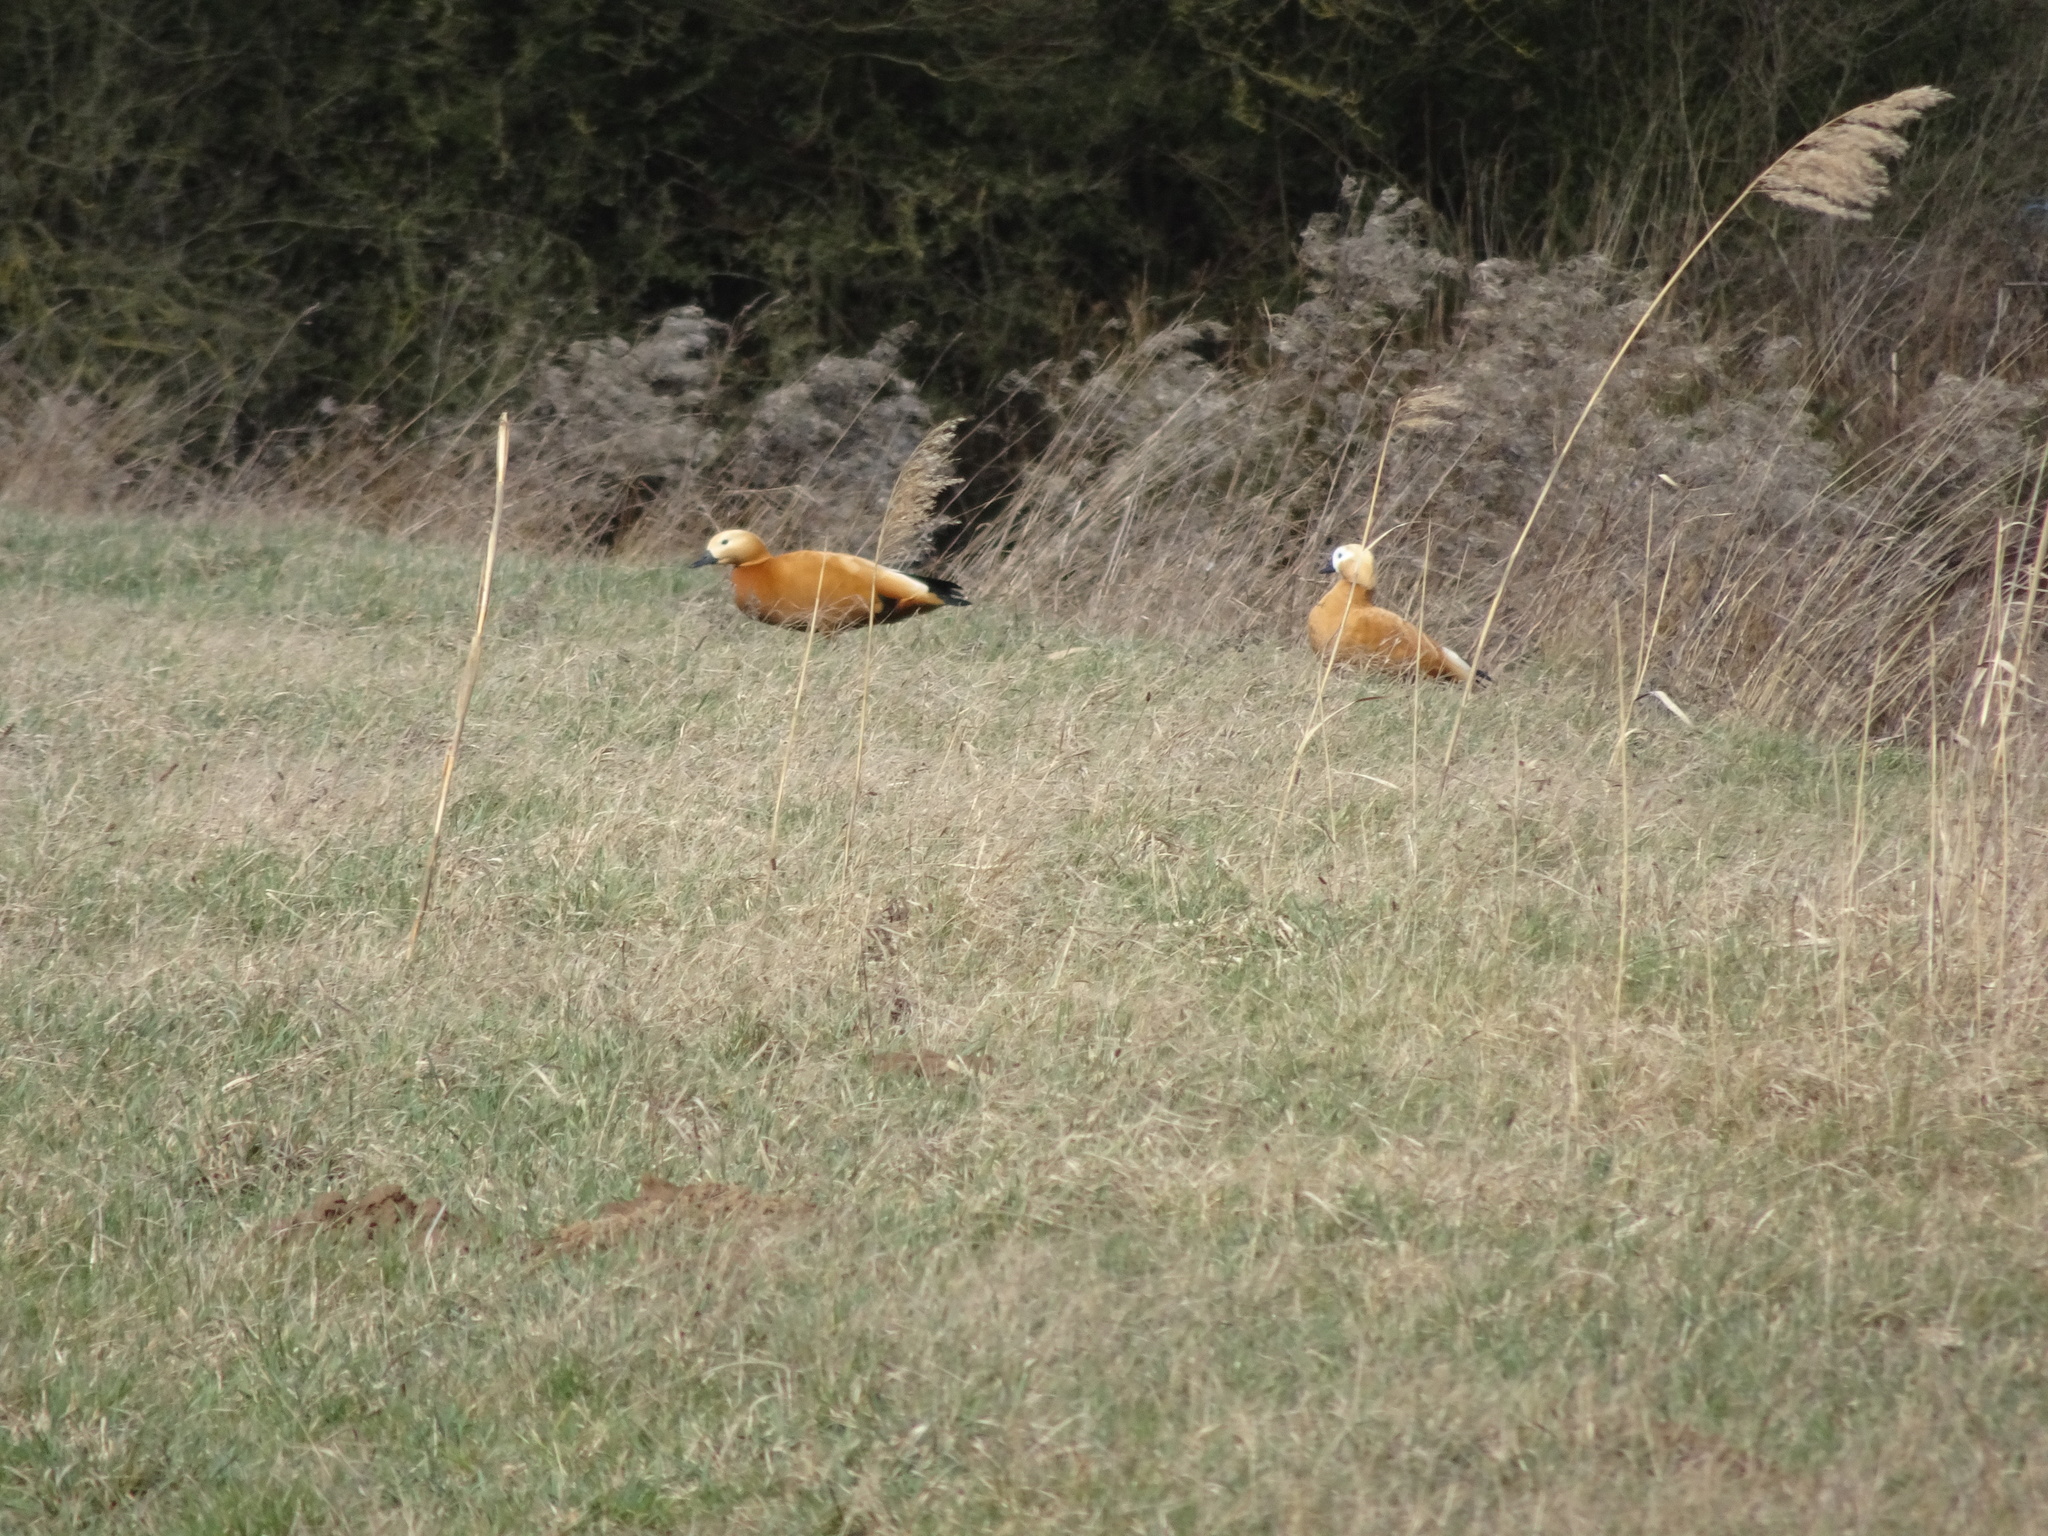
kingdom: Animalia
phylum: Chordata
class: Aves
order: Anseriformes
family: Anatidae
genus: Tadorna
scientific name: Tadorna ferruginea
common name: Ruddy shelduck
